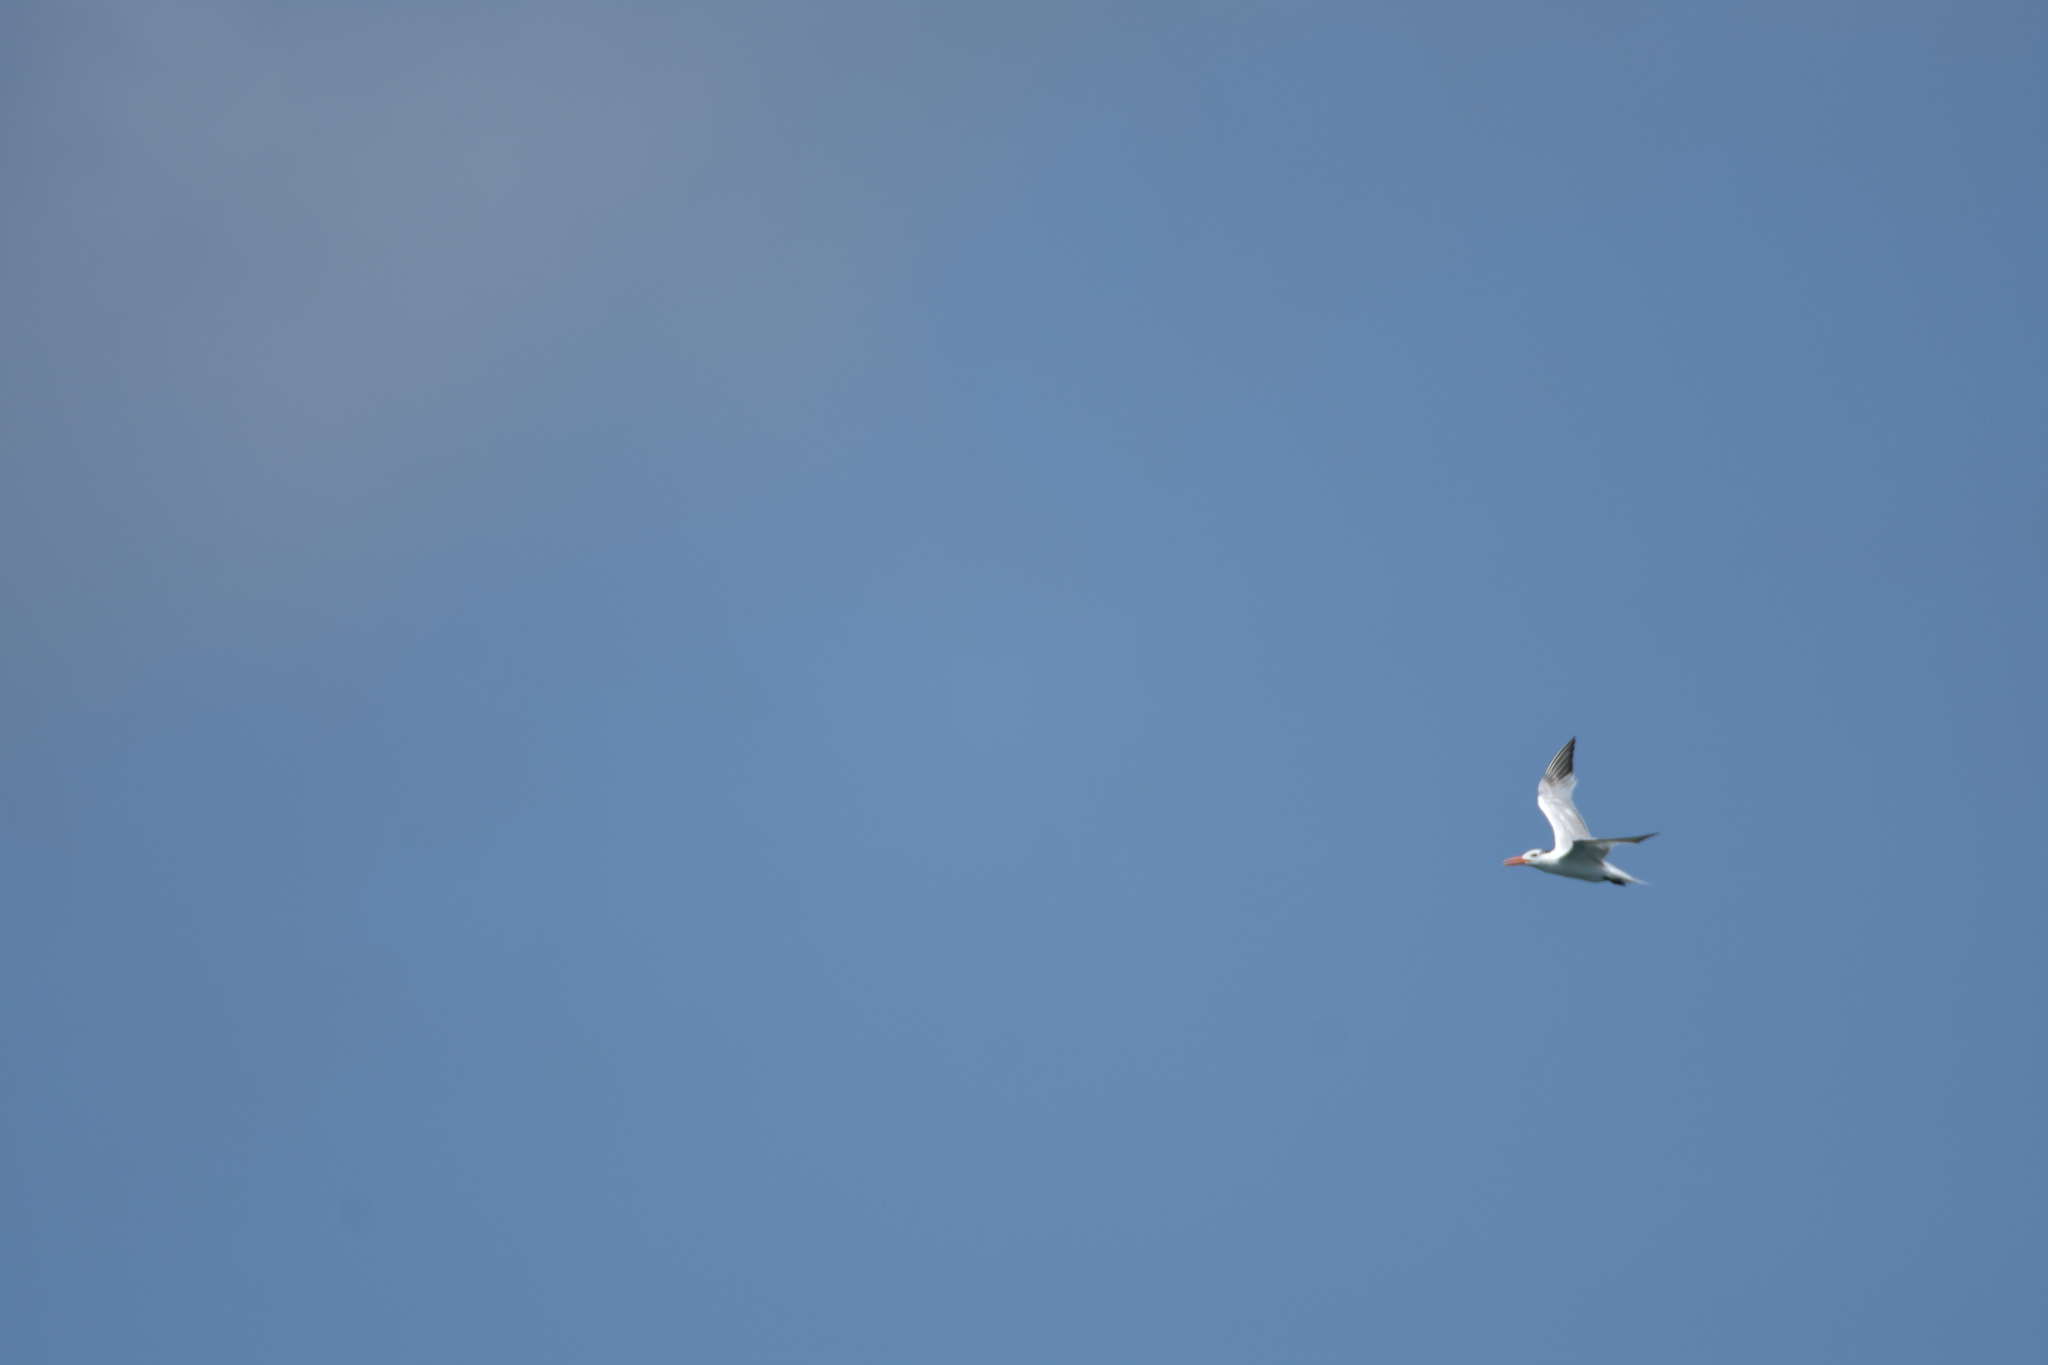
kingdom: Animalia
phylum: Chordata
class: Aves
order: Charadriiformes
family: Laridae
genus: Thalasseus
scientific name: Thalasseus maximus
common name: Royal tern
